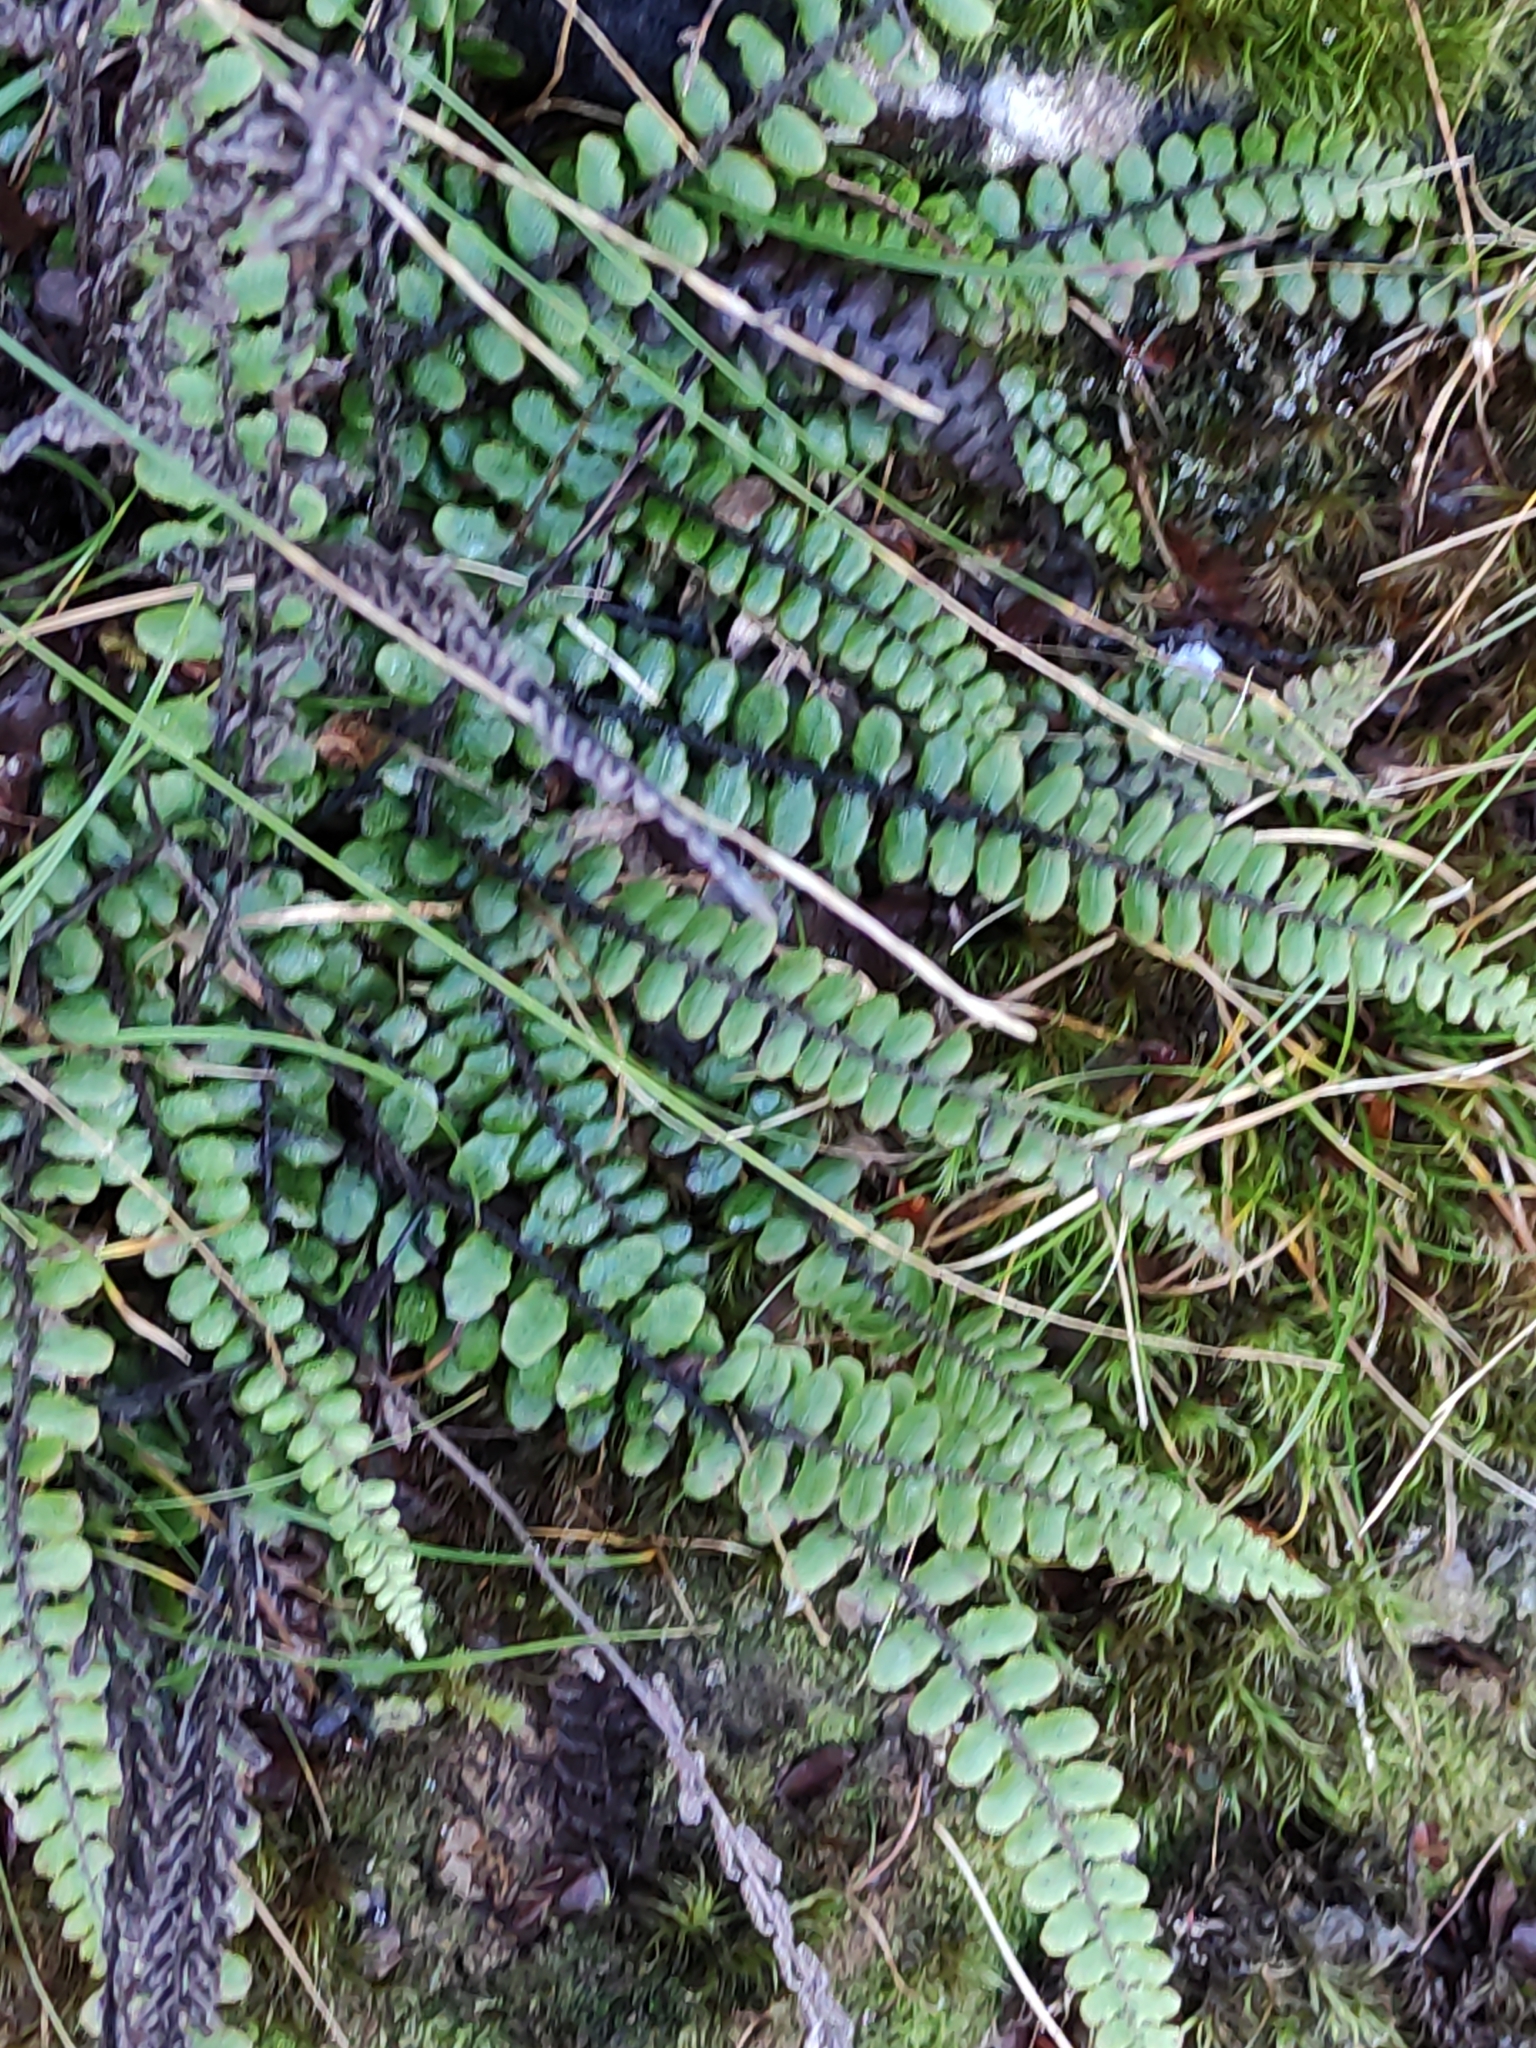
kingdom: Plantae
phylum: Tracheophyta
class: Polypodiopsida
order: Polypodiales
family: Blechnaceae
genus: Cranfillia
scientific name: Cranfillia fluviatilis
